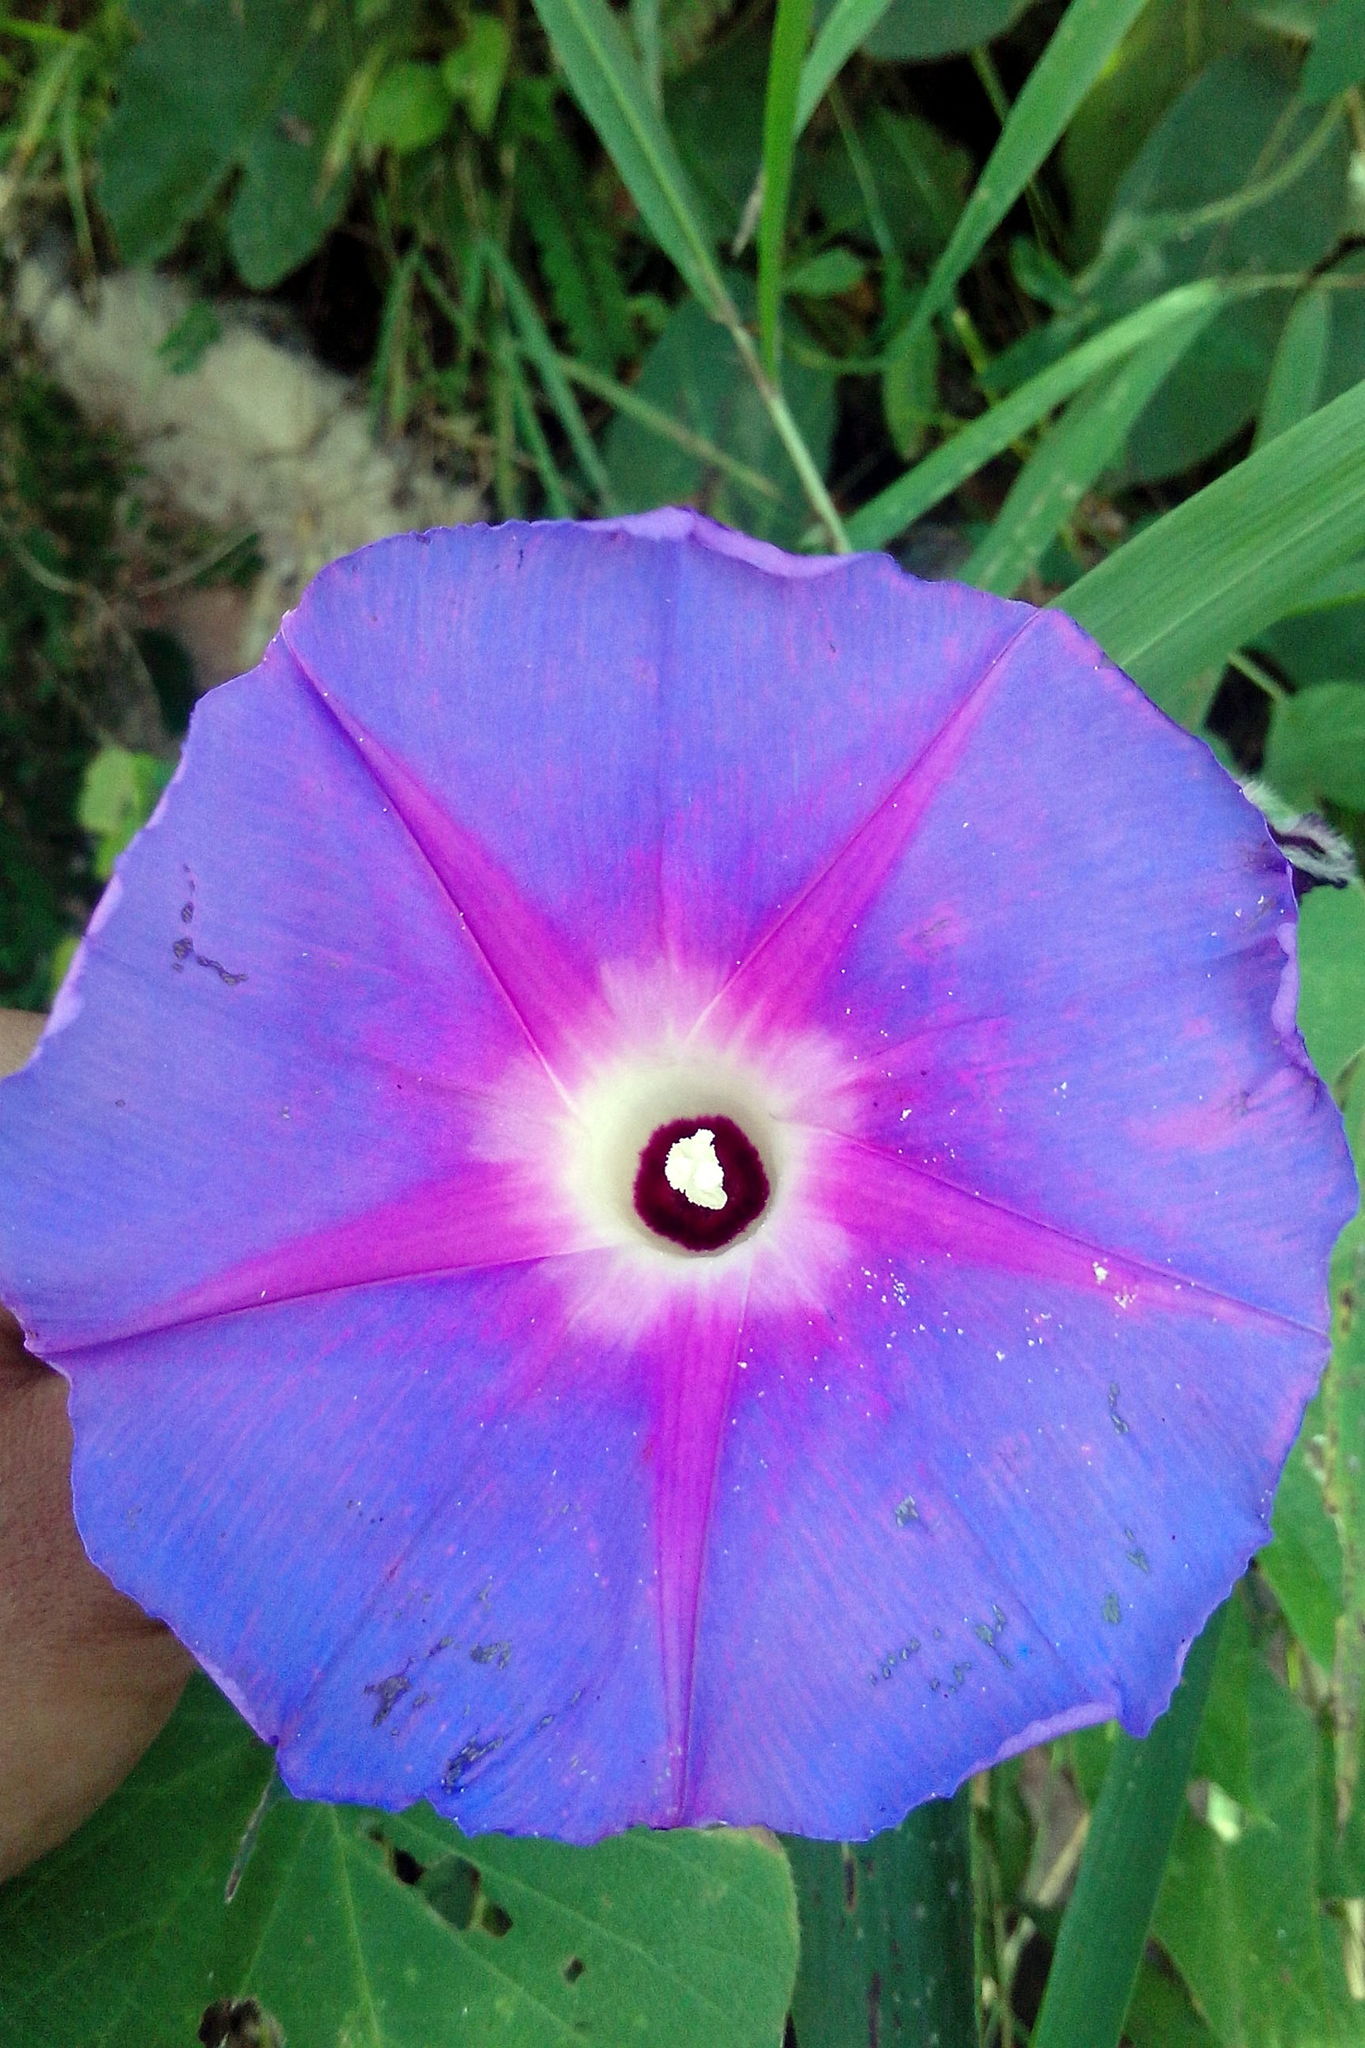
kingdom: Plantae
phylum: Tracheophyta
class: Magnoliopsida
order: Solanales
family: Convolvulaceae
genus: Ipomoea
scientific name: Ipomoea villifera
